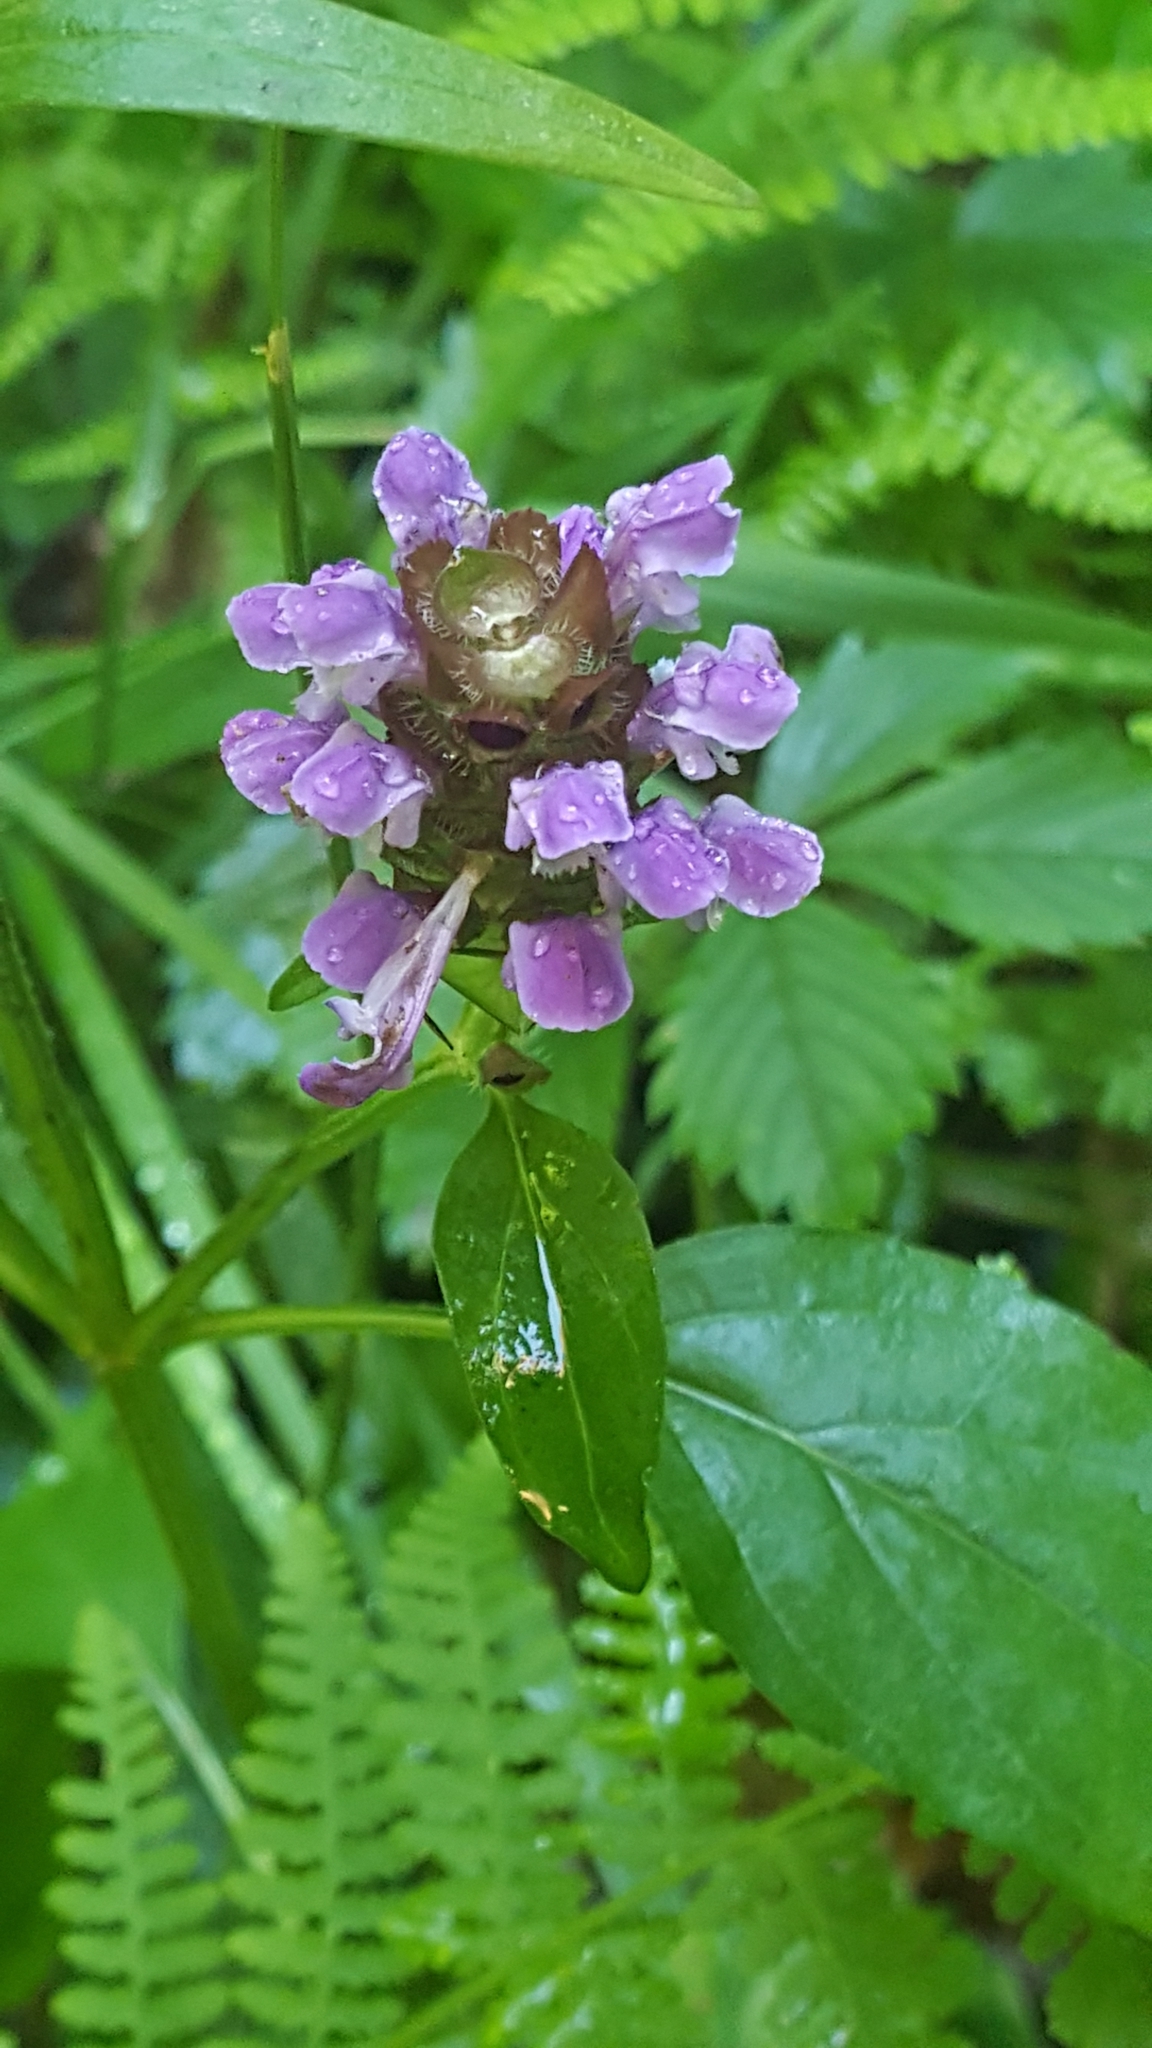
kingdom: Plantae
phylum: Tracheophyta
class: Magnoliopsida
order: Lamiales
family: Lamiaceae
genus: Prunella
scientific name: Prunella vulgaris
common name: Heal-all
